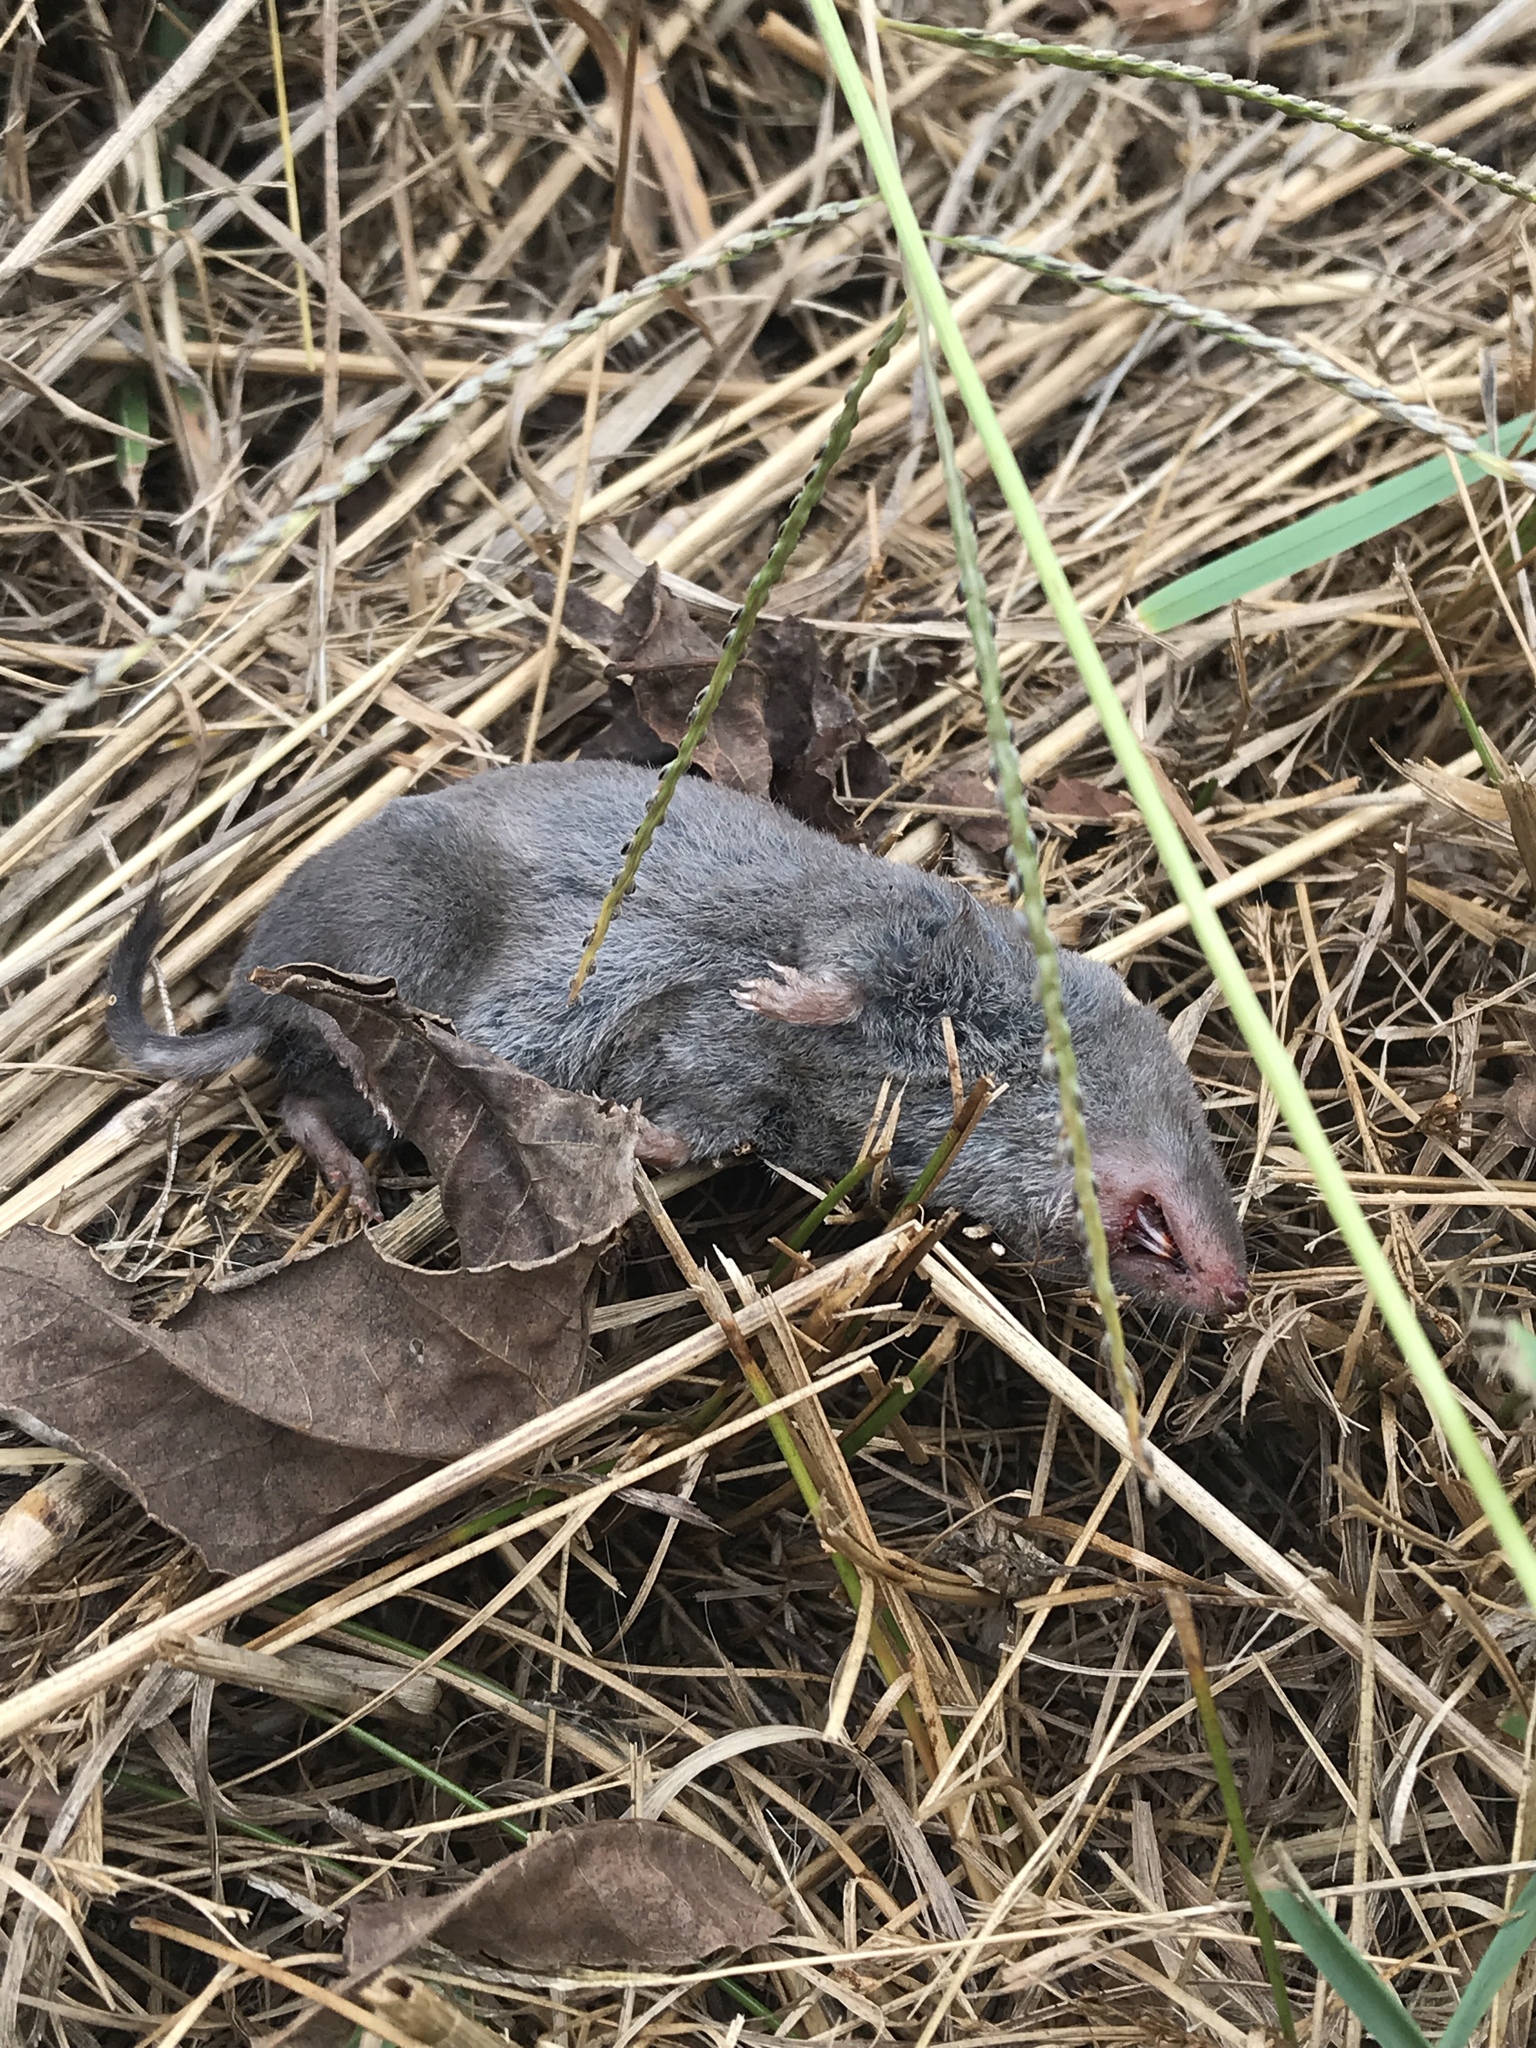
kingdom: Animalia
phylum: Chordata
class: Mammalia
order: Soricomorpha
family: Soricidae
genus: Blarina
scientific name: Blarina brevicauda
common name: Northern short-tailed shrew
